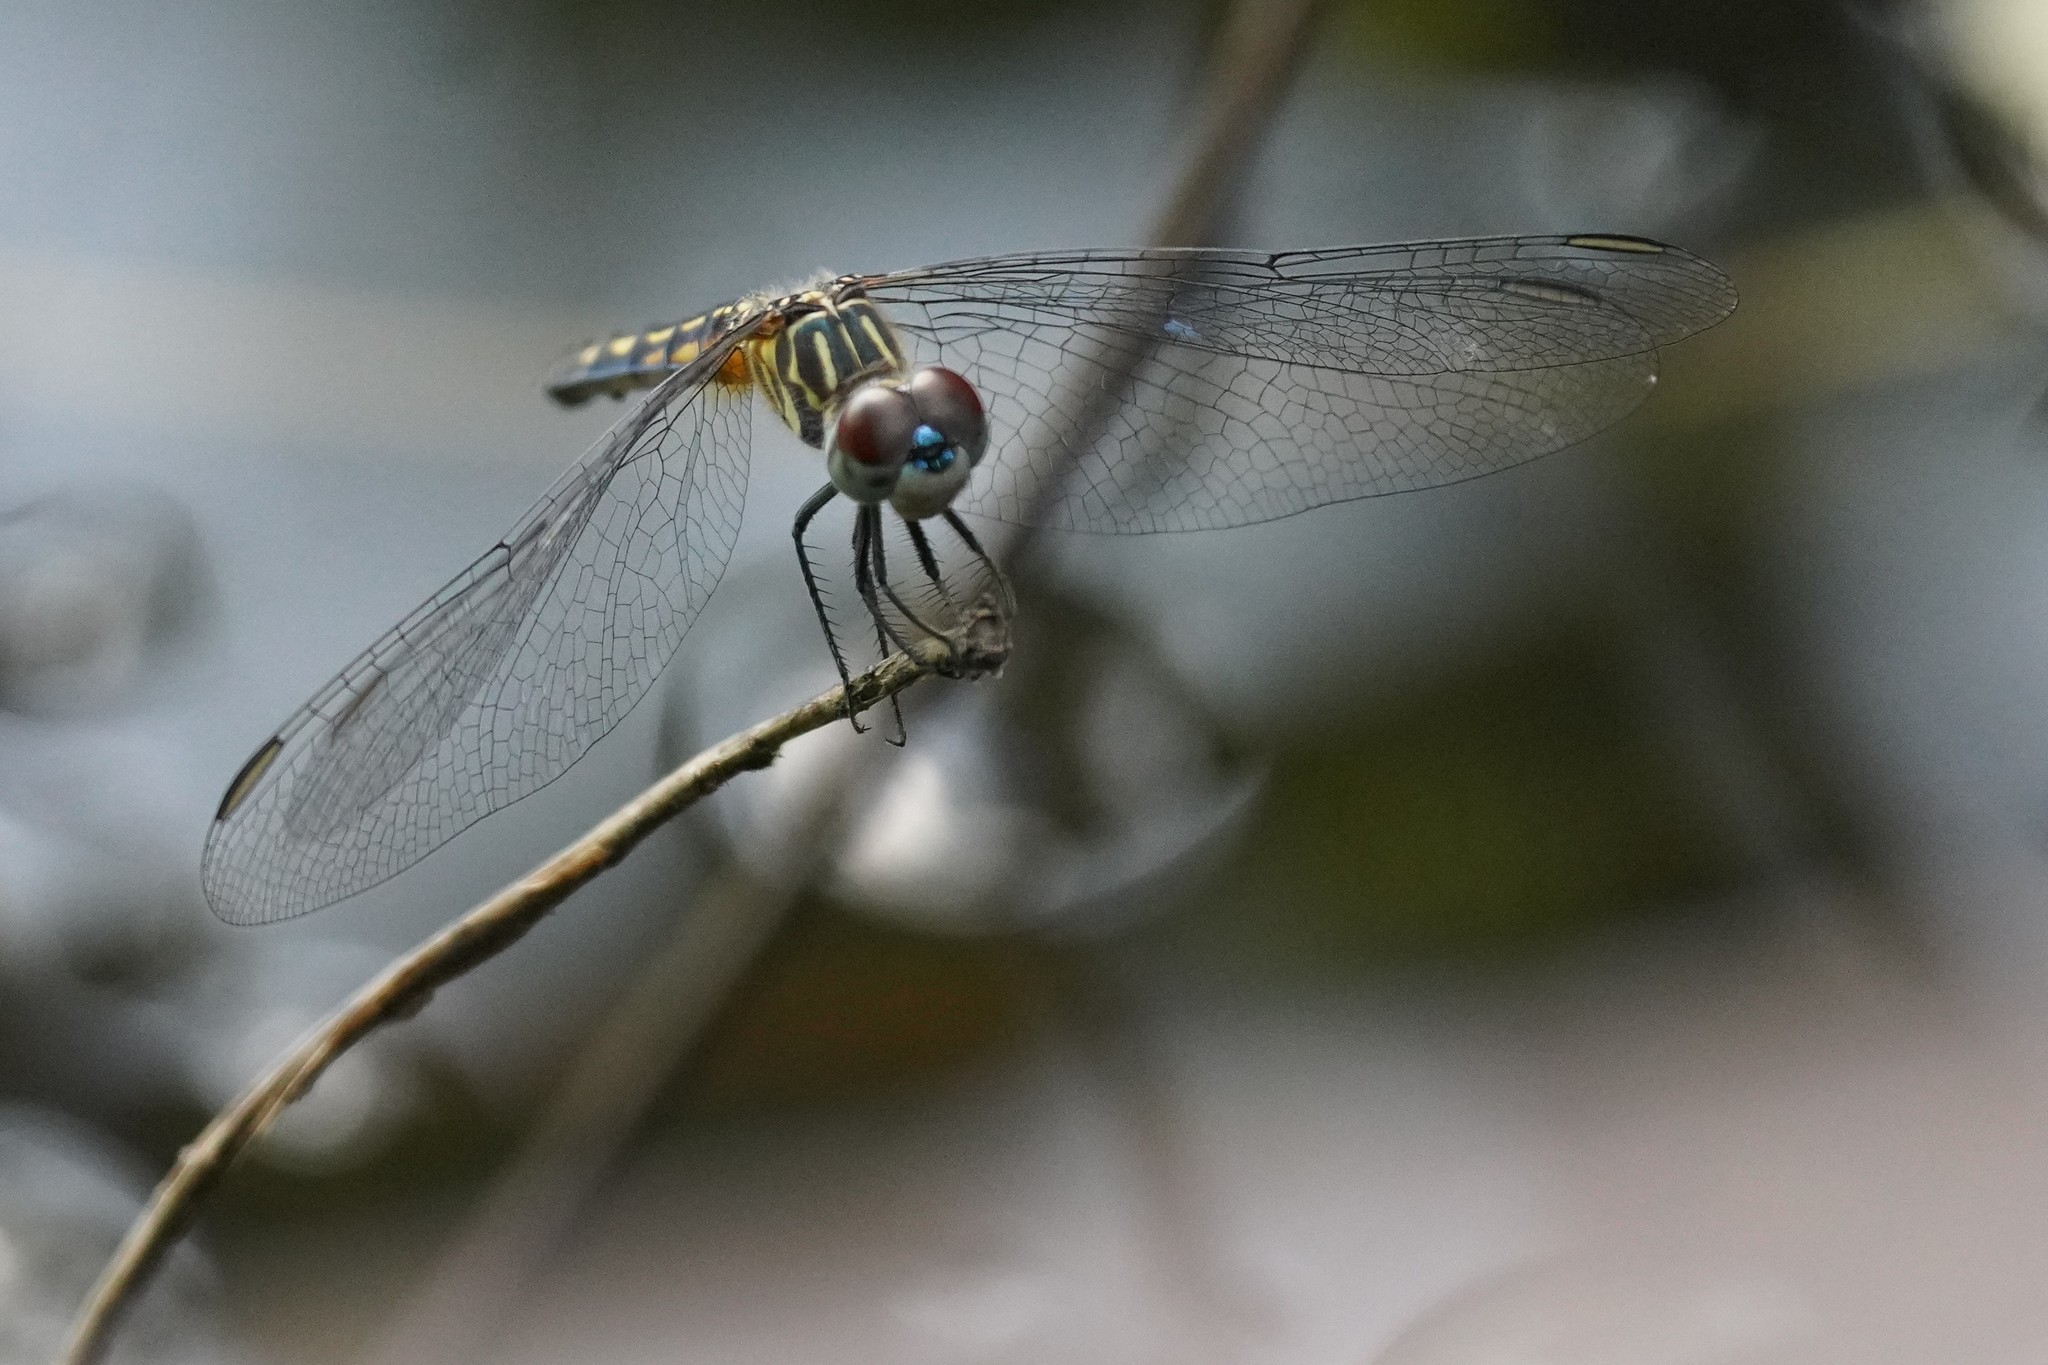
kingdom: Animalia
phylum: Arthropoda
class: Insecta
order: Odonata
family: Libellulidae
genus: Pachydiplax
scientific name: Pachydiplax longipennis
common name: Blue dasher
